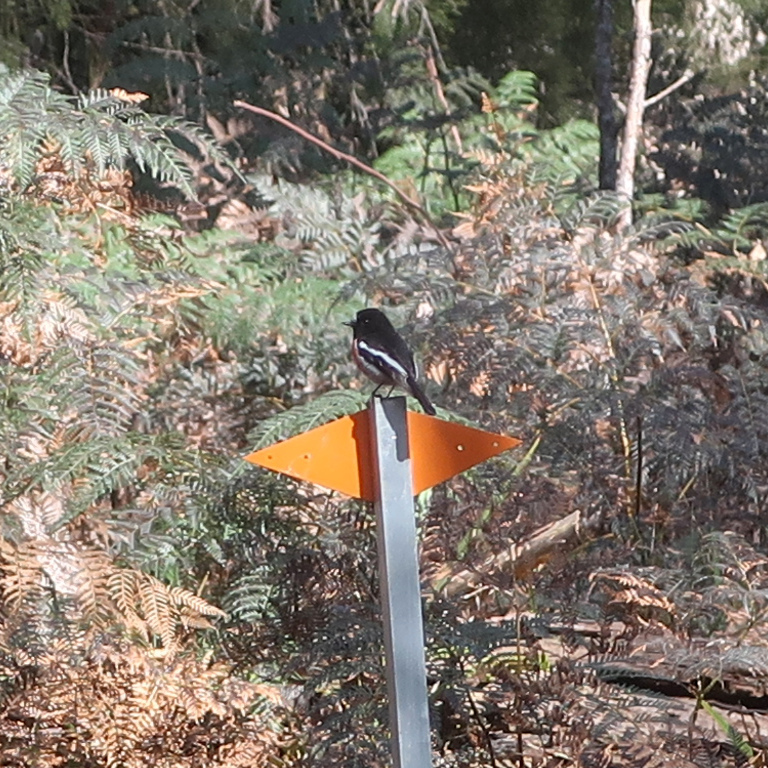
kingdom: Animalia
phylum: Chordata
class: Aves
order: Passeriformes
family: Petroicidae
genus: Petroica
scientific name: Petroica boodang
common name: Scarlet robin
